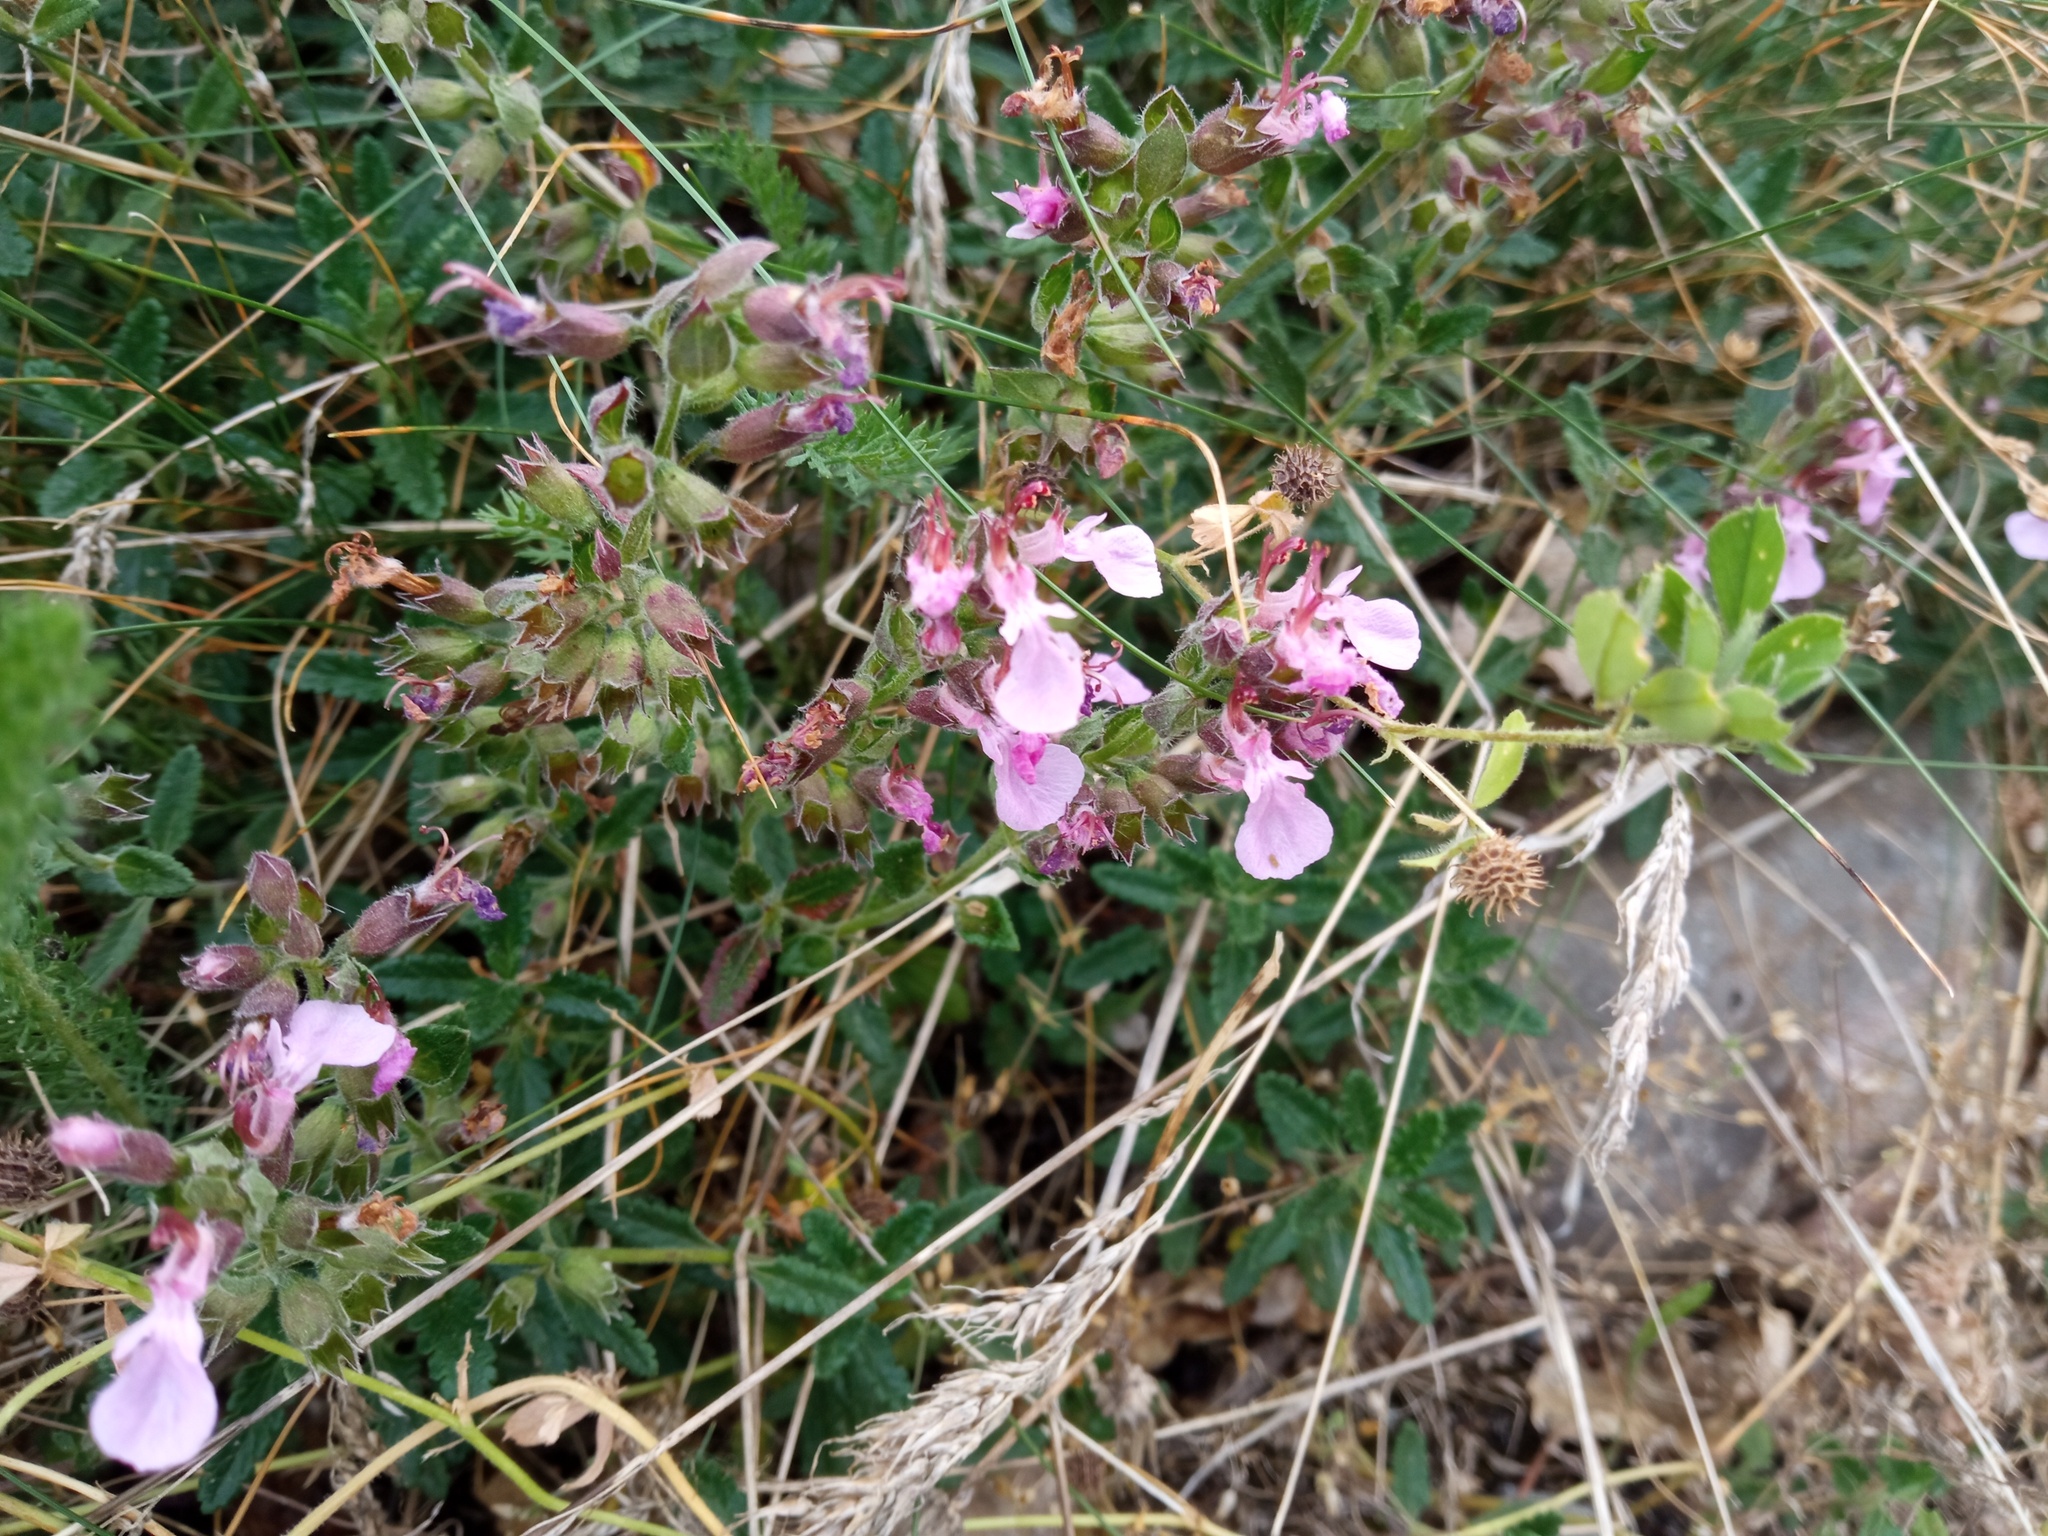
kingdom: Plantae
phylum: Tracheophyta
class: Magnoliopsida
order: Lamiales
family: Lamiaceae
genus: Teucrium
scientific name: Teucrium chamaedrys
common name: Wall germander
